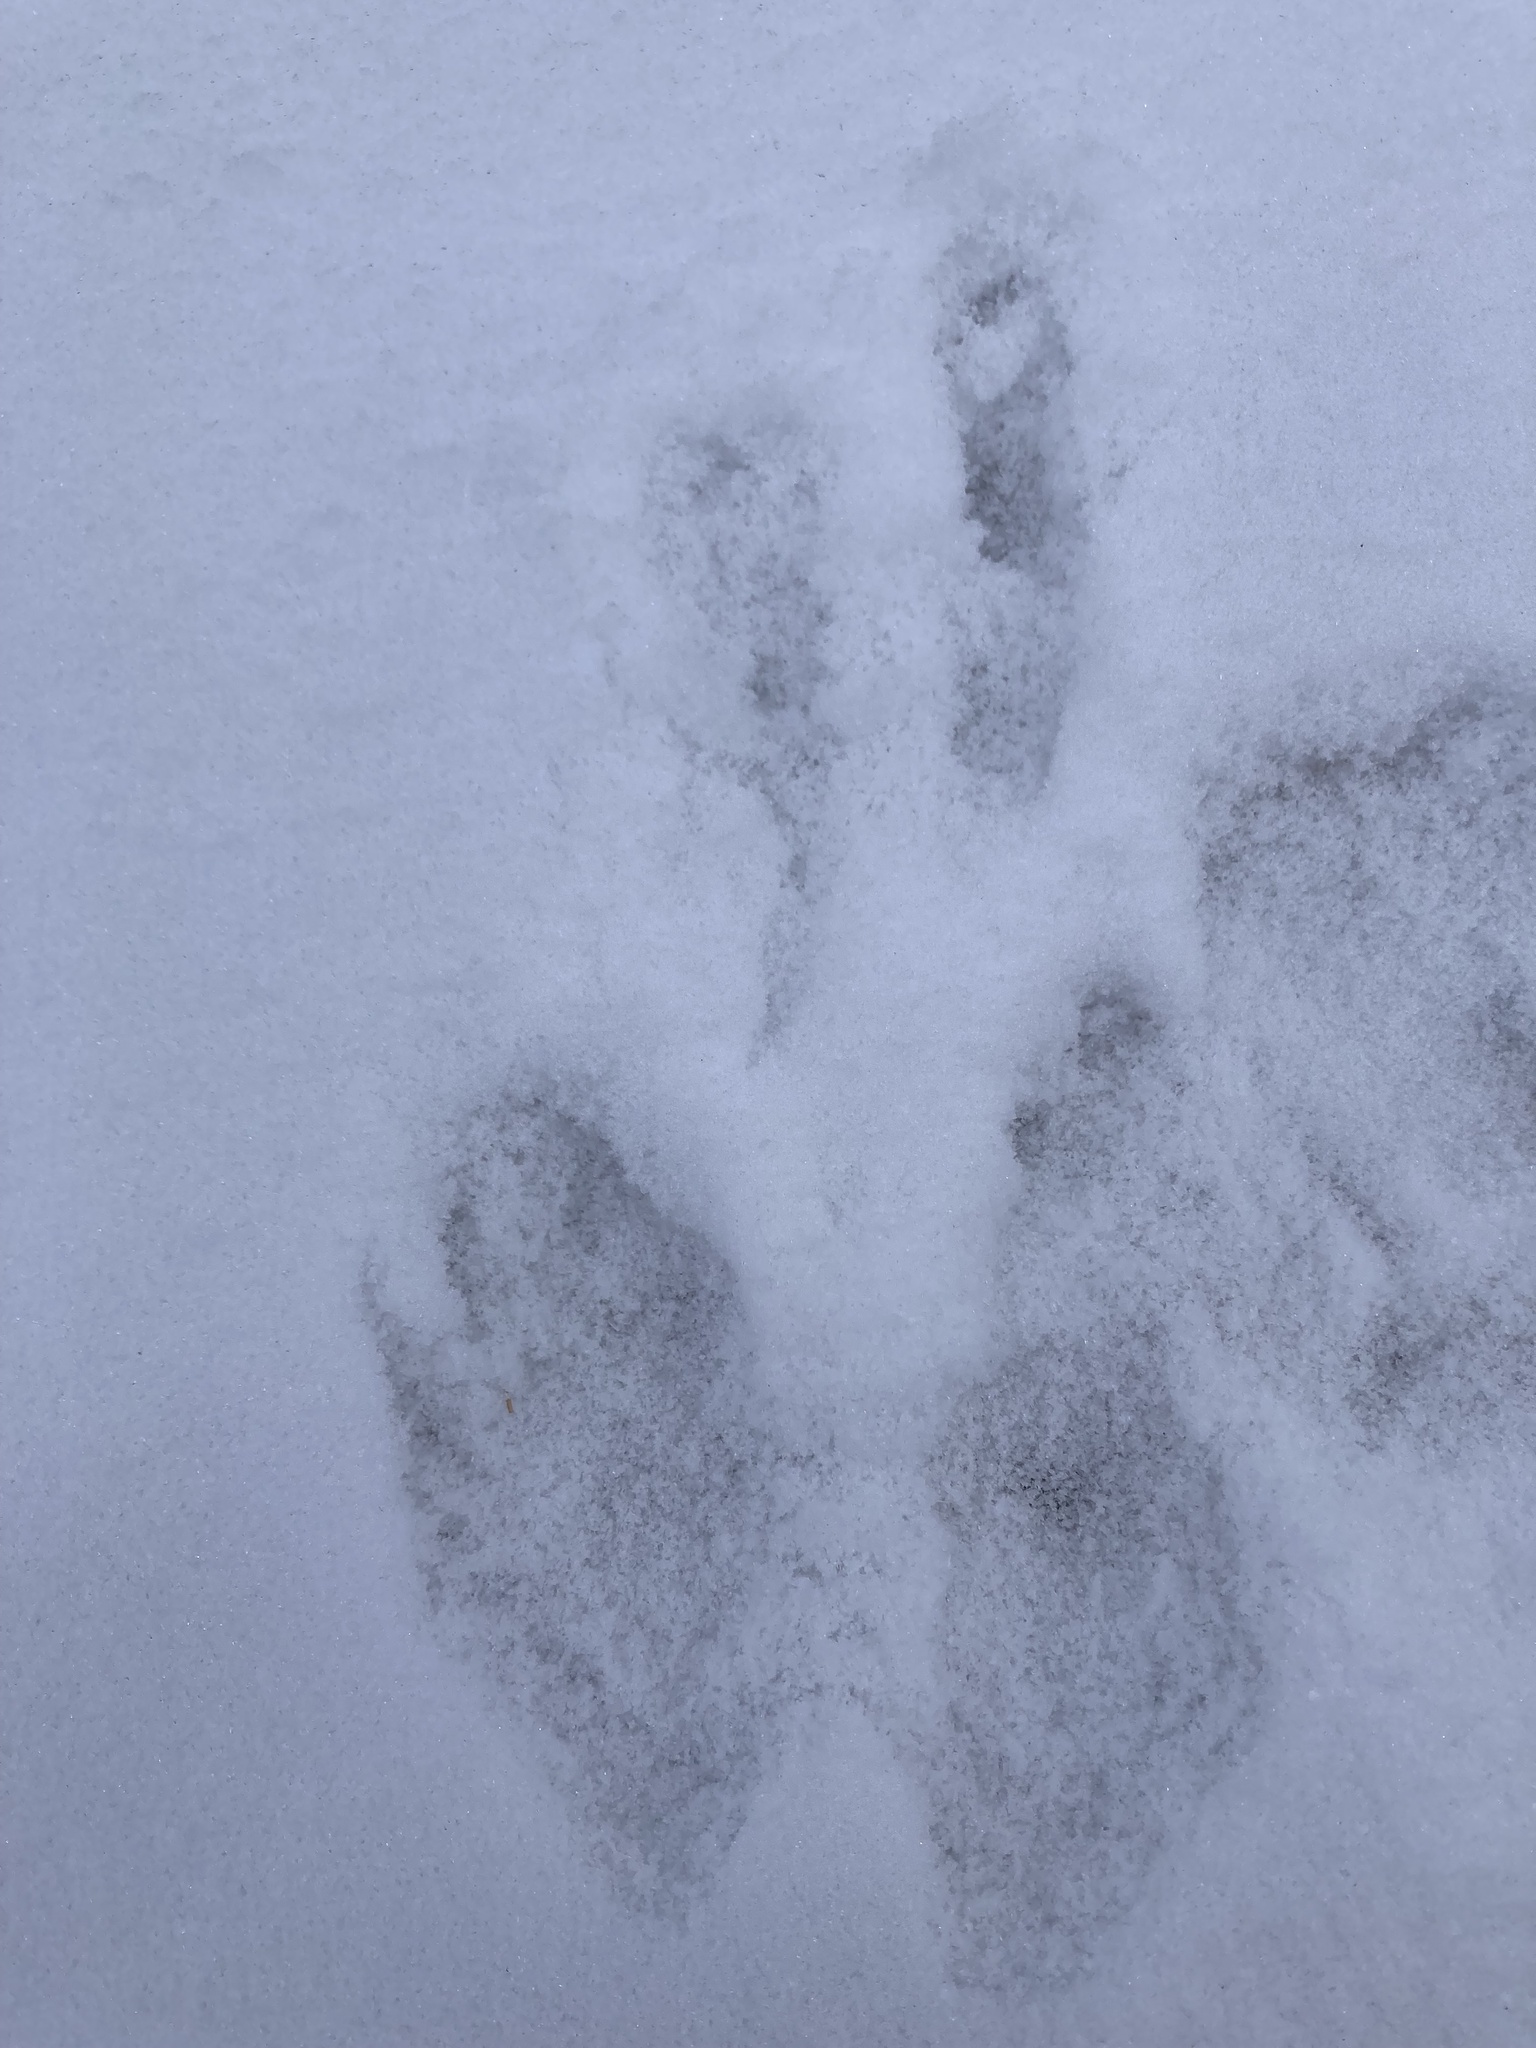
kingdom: Animalia
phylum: Chordata
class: Mammalia
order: Lagomorpha
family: Leporidae
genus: Lepus
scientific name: Lepus americanus
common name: Snowshoe hare
